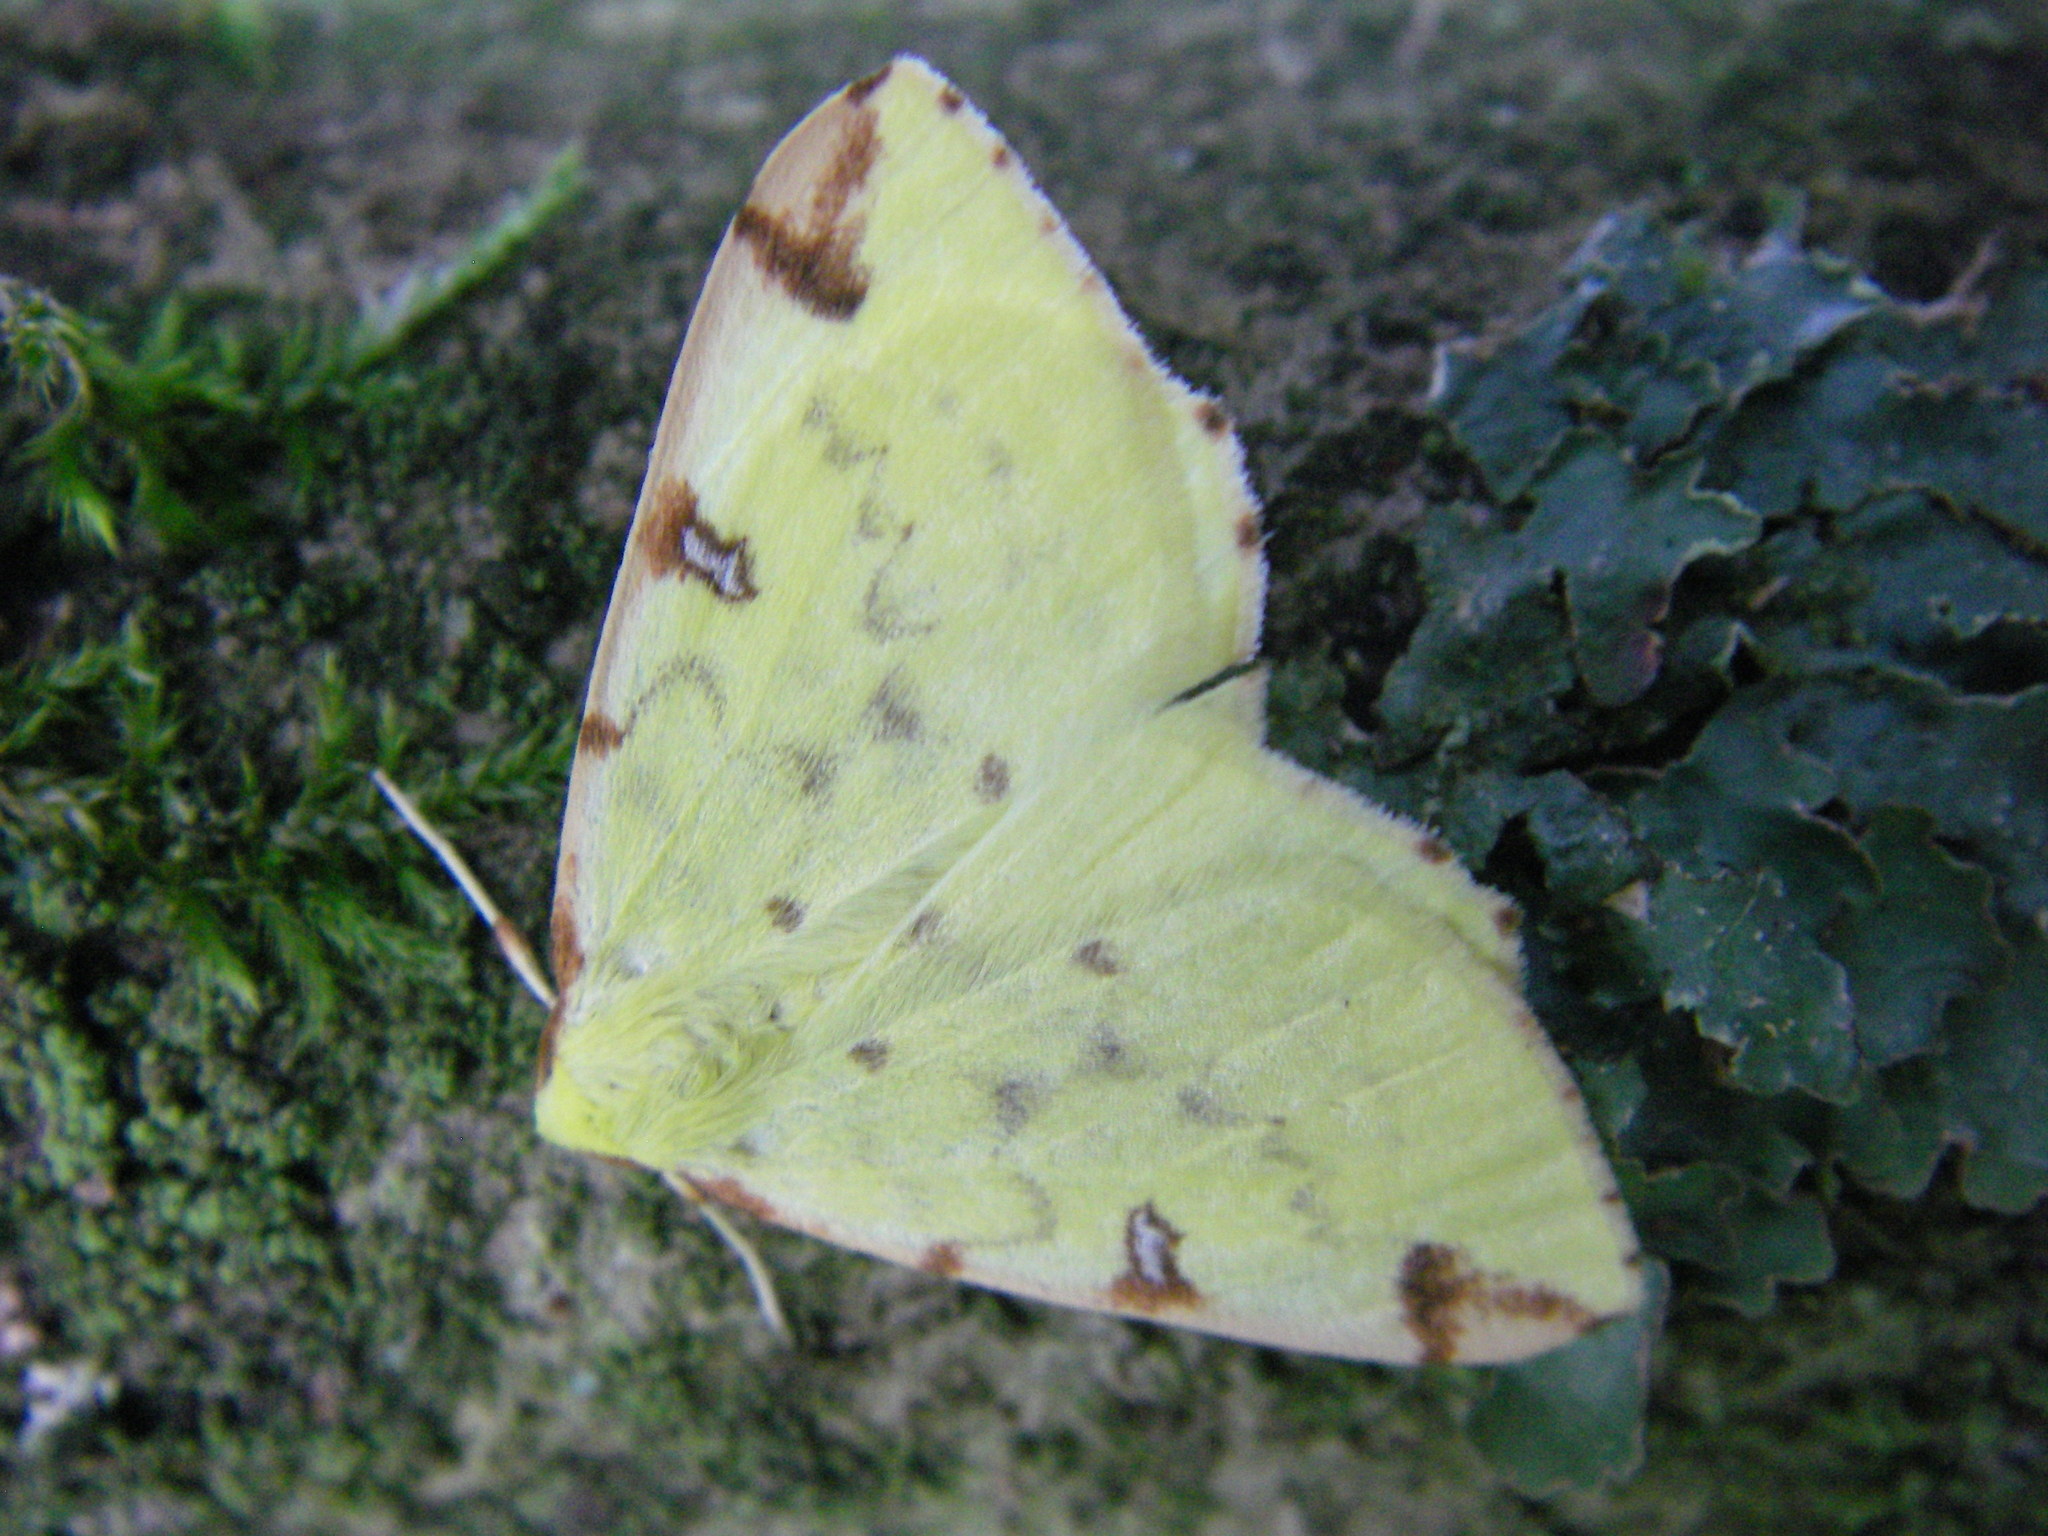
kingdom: Animalia
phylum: Arthropoda
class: Insecta
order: Lepidoptera
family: Geometridae
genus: Opisthograptis
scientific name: Opisthograptis luteolata
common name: Brimstone moth
